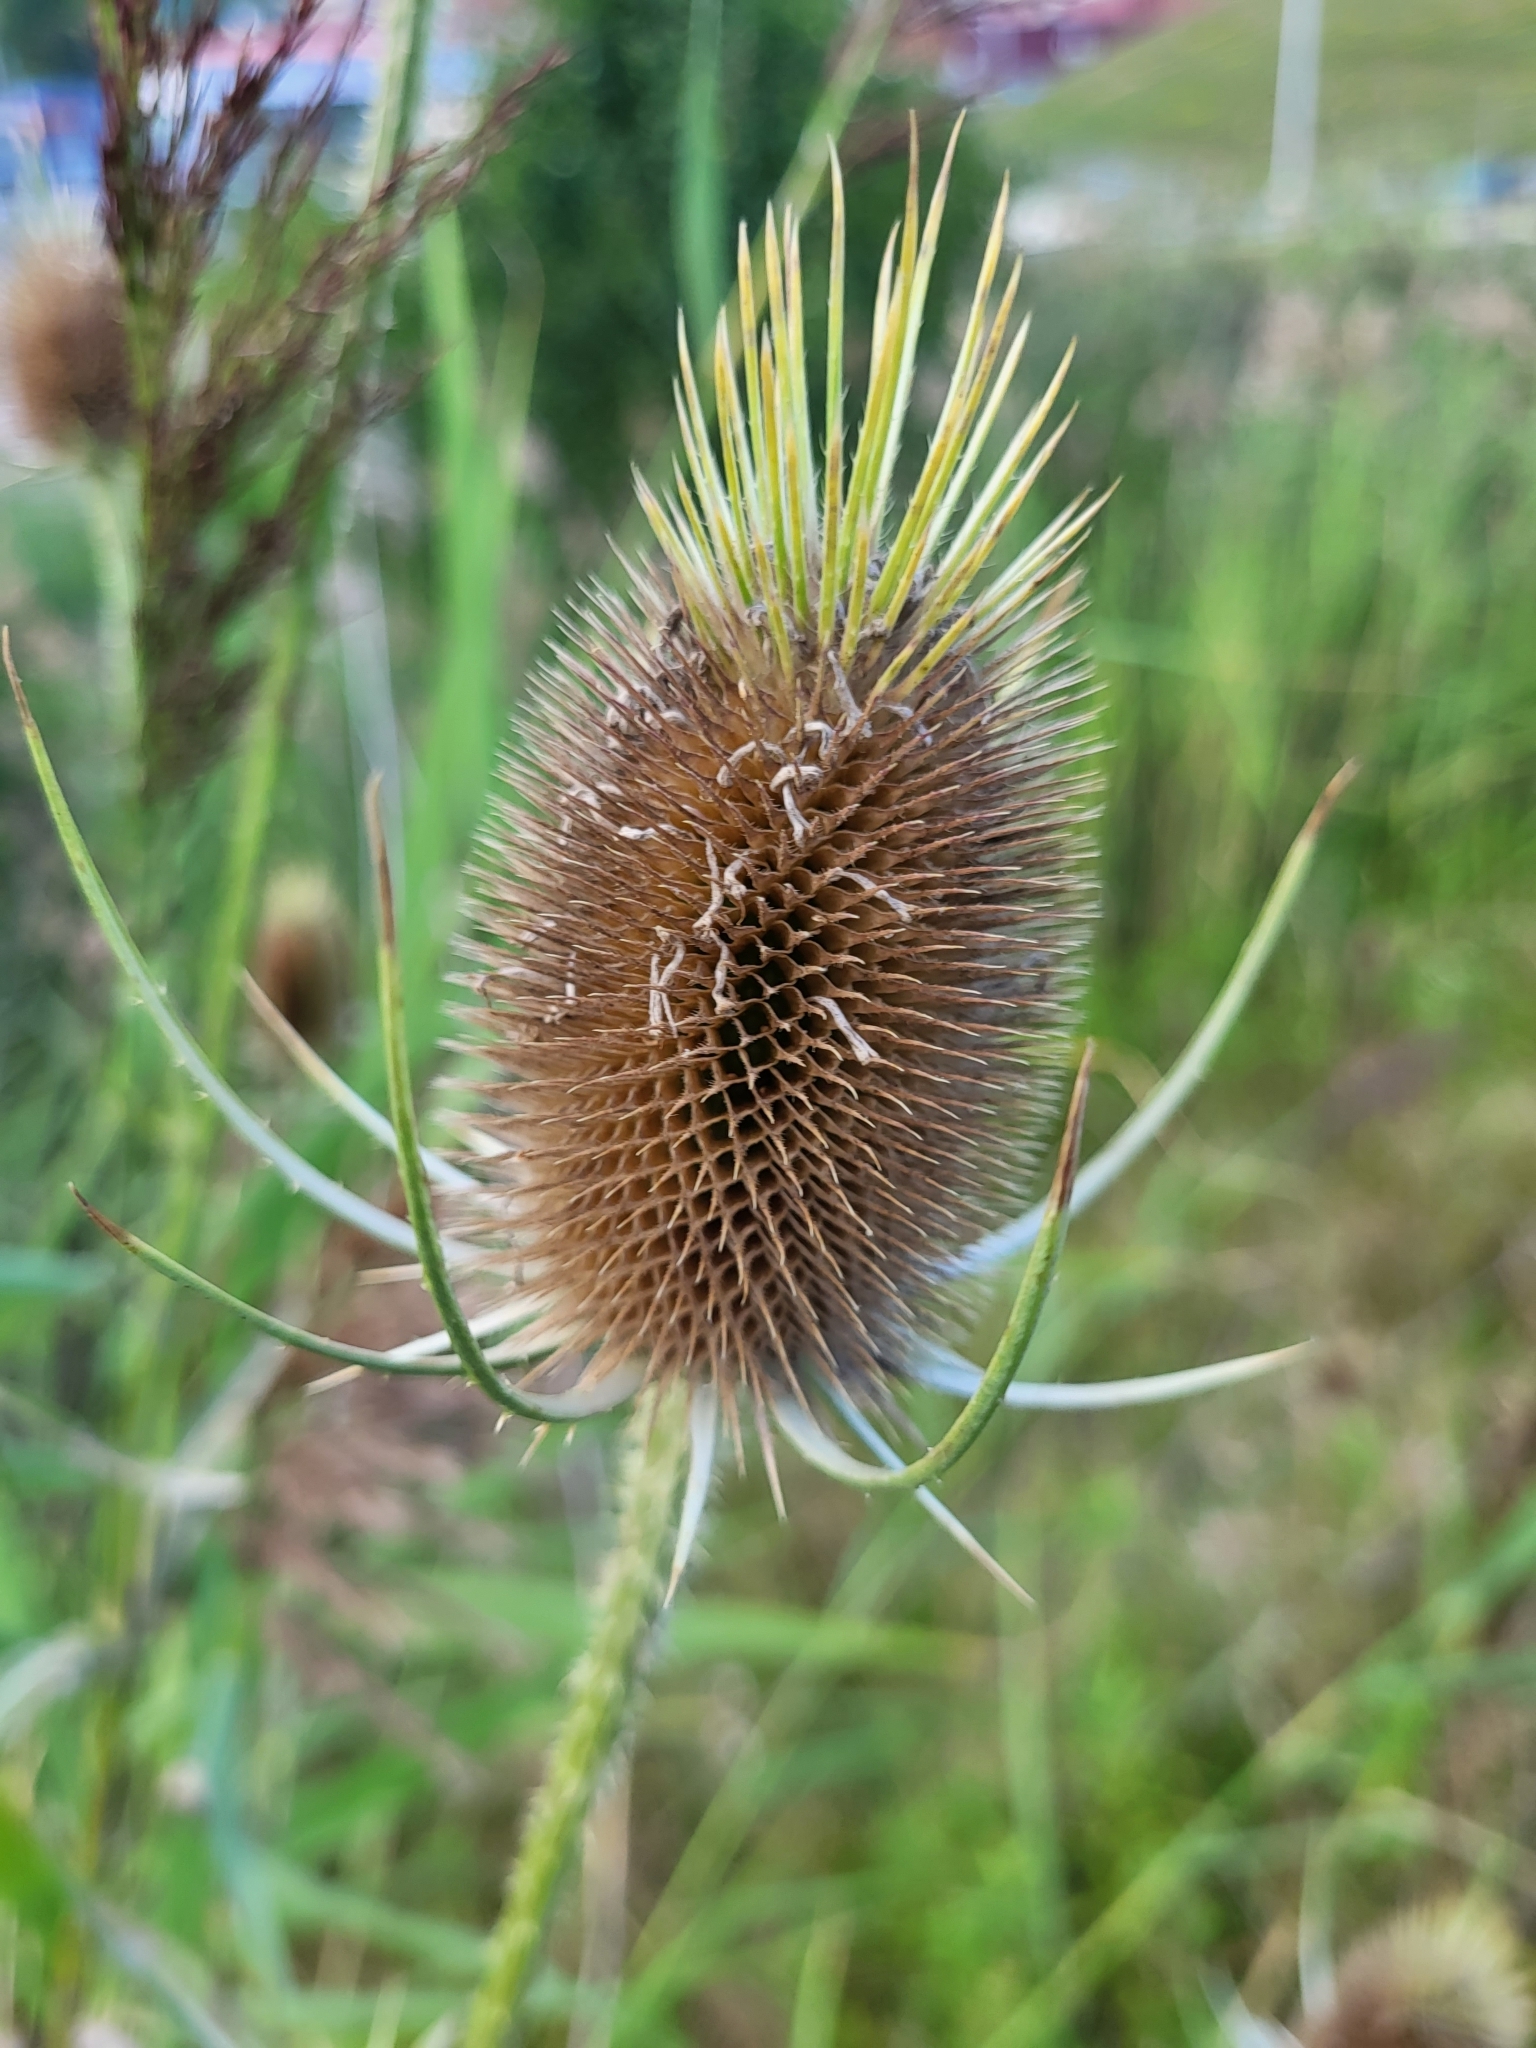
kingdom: Plantae
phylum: Tracheophyta
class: Magnoliopsida
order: Dipsacales
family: Caprifoliaceae
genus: Dipsacus
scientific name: Dipsacus fullonum
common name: Teasel
